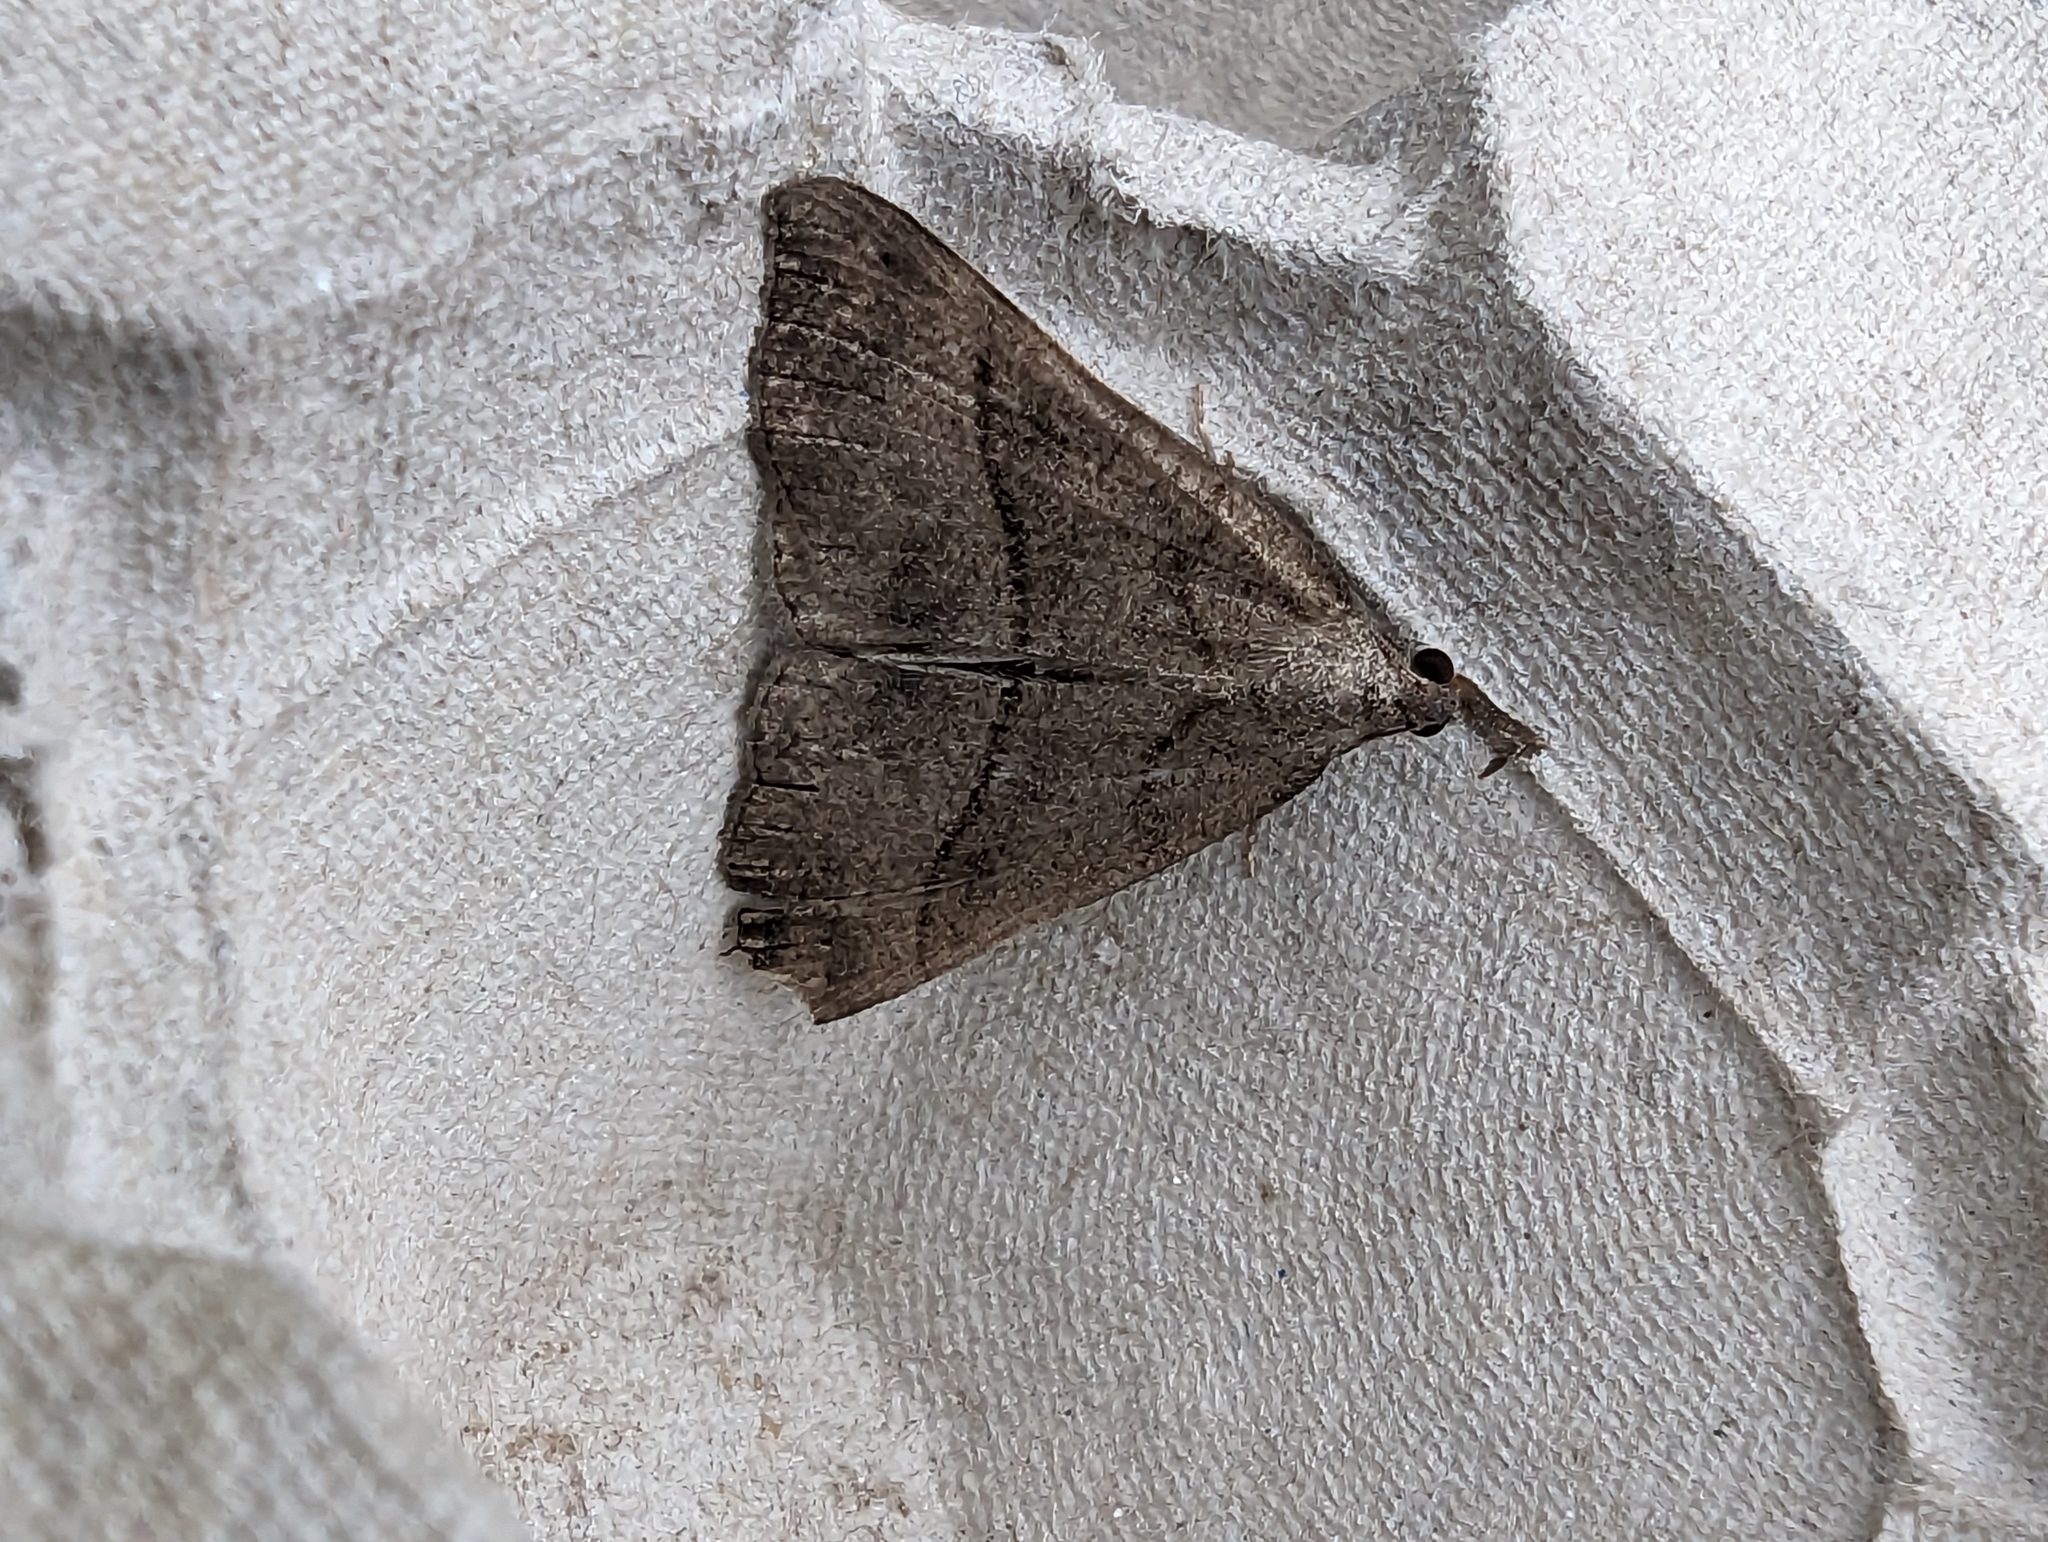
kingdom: Animalia
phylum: Arthropoda
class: Insecta
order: Lepidoptera
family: Erebidae
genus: Hypena
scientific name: Hypena proboscidalis
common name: Snout
